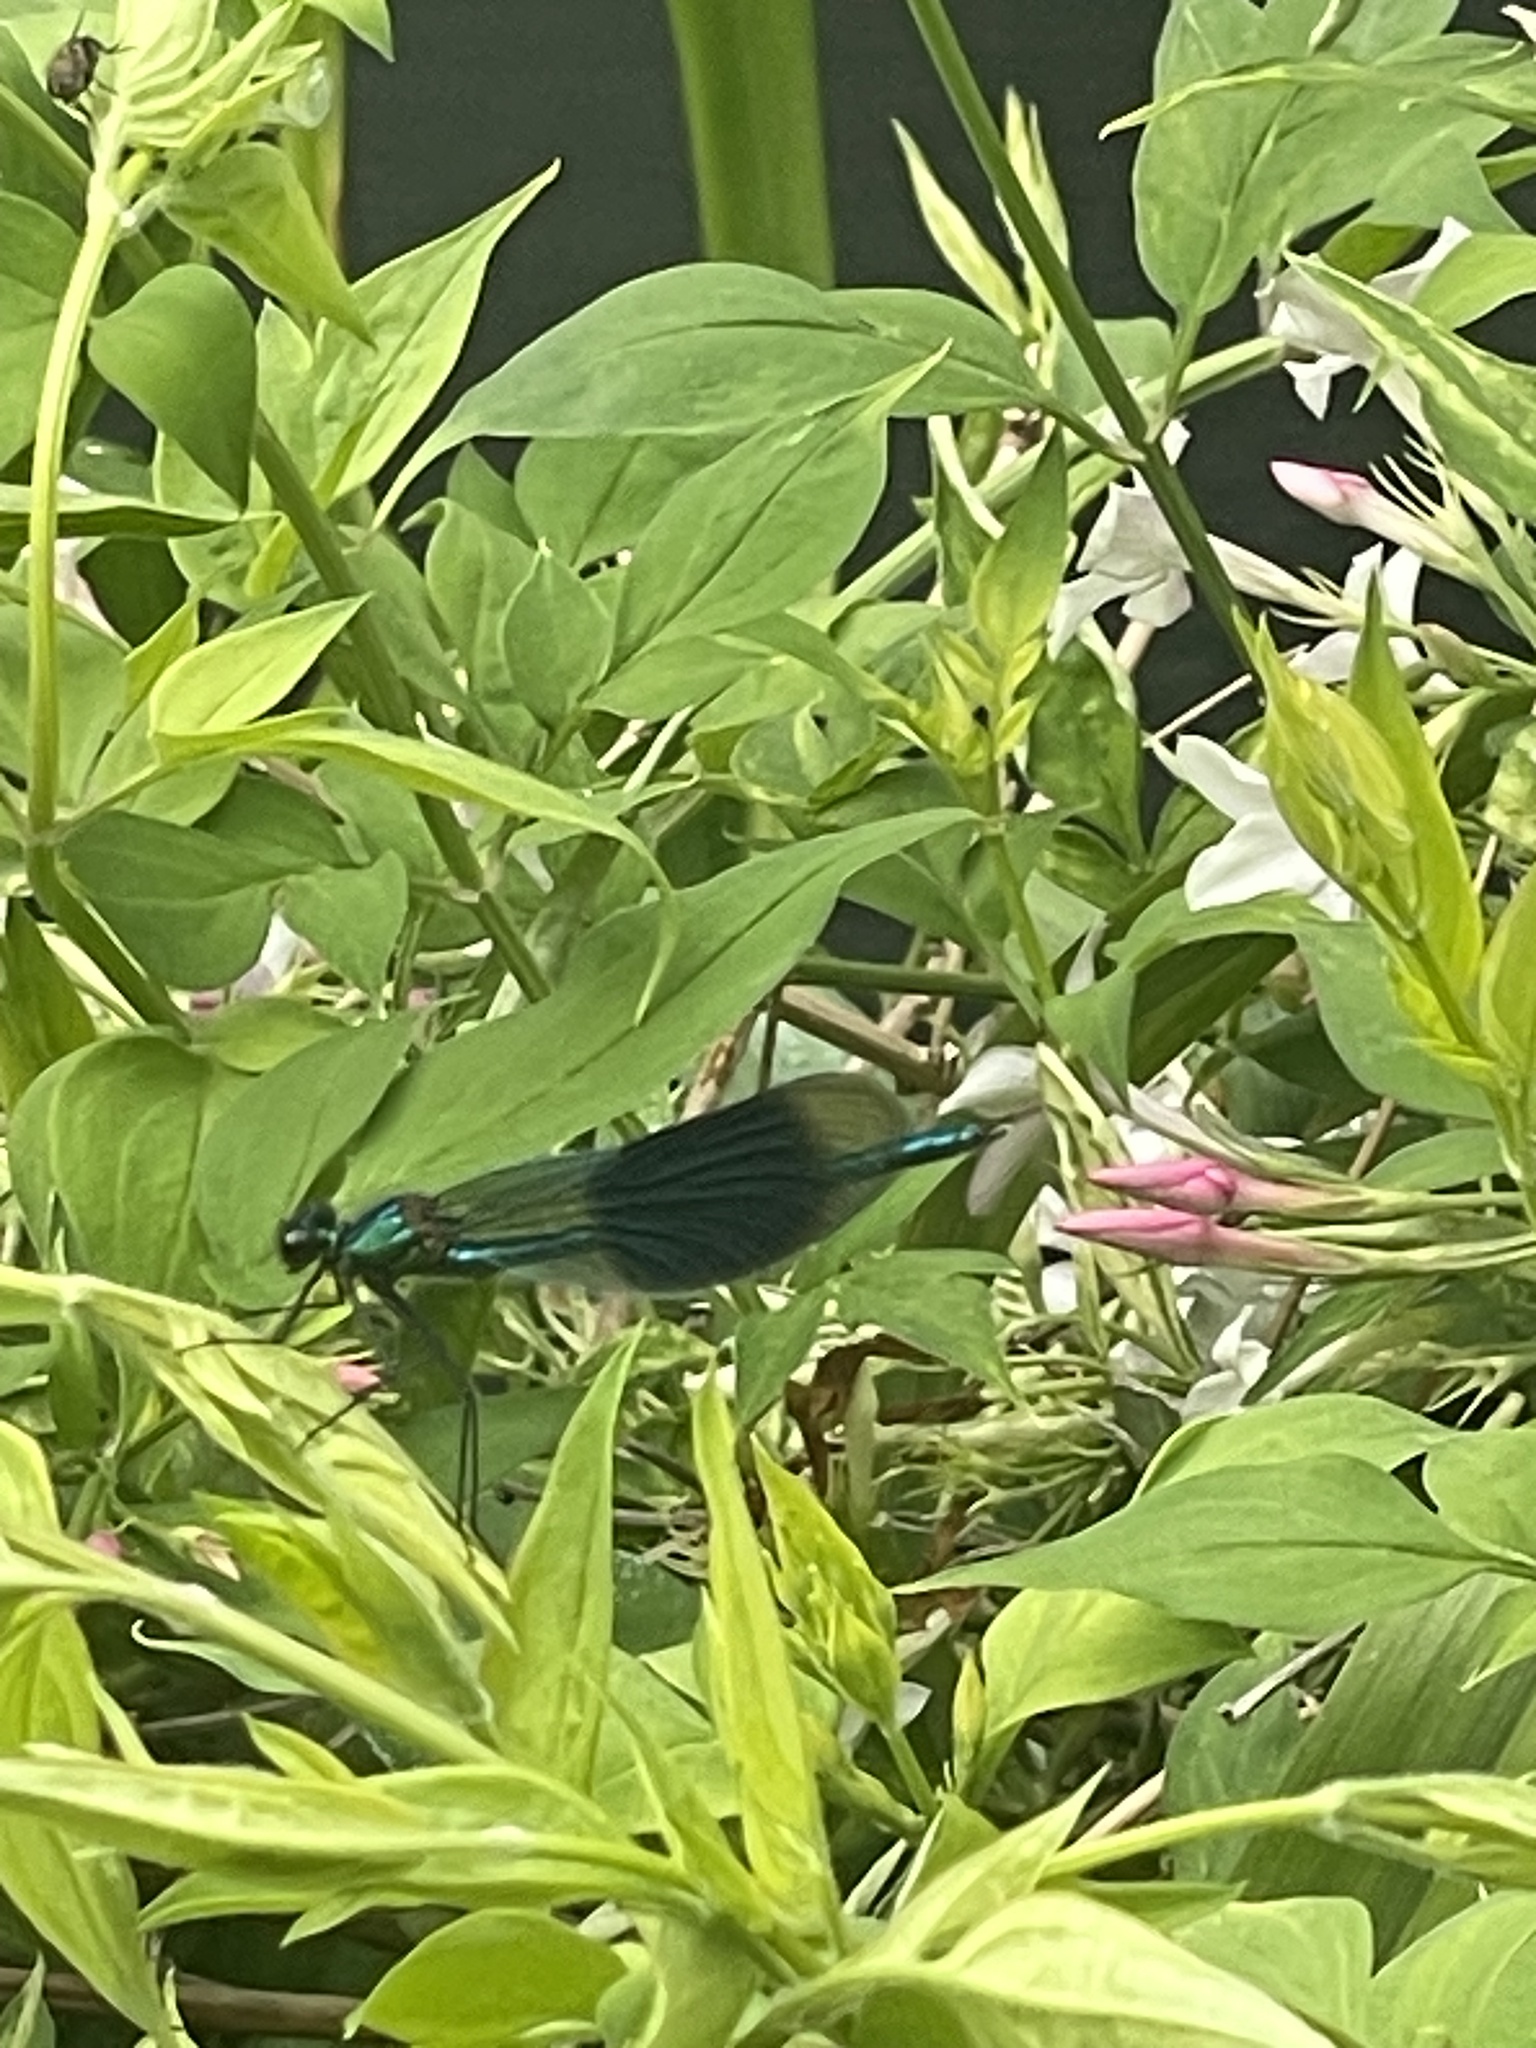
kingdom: Animalia
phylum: Arthropoda
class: Insecta
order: Odonata
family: Calopterygidae
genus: Calopteryx
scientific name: Calopteryx splendens
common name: Banded demoiselle
